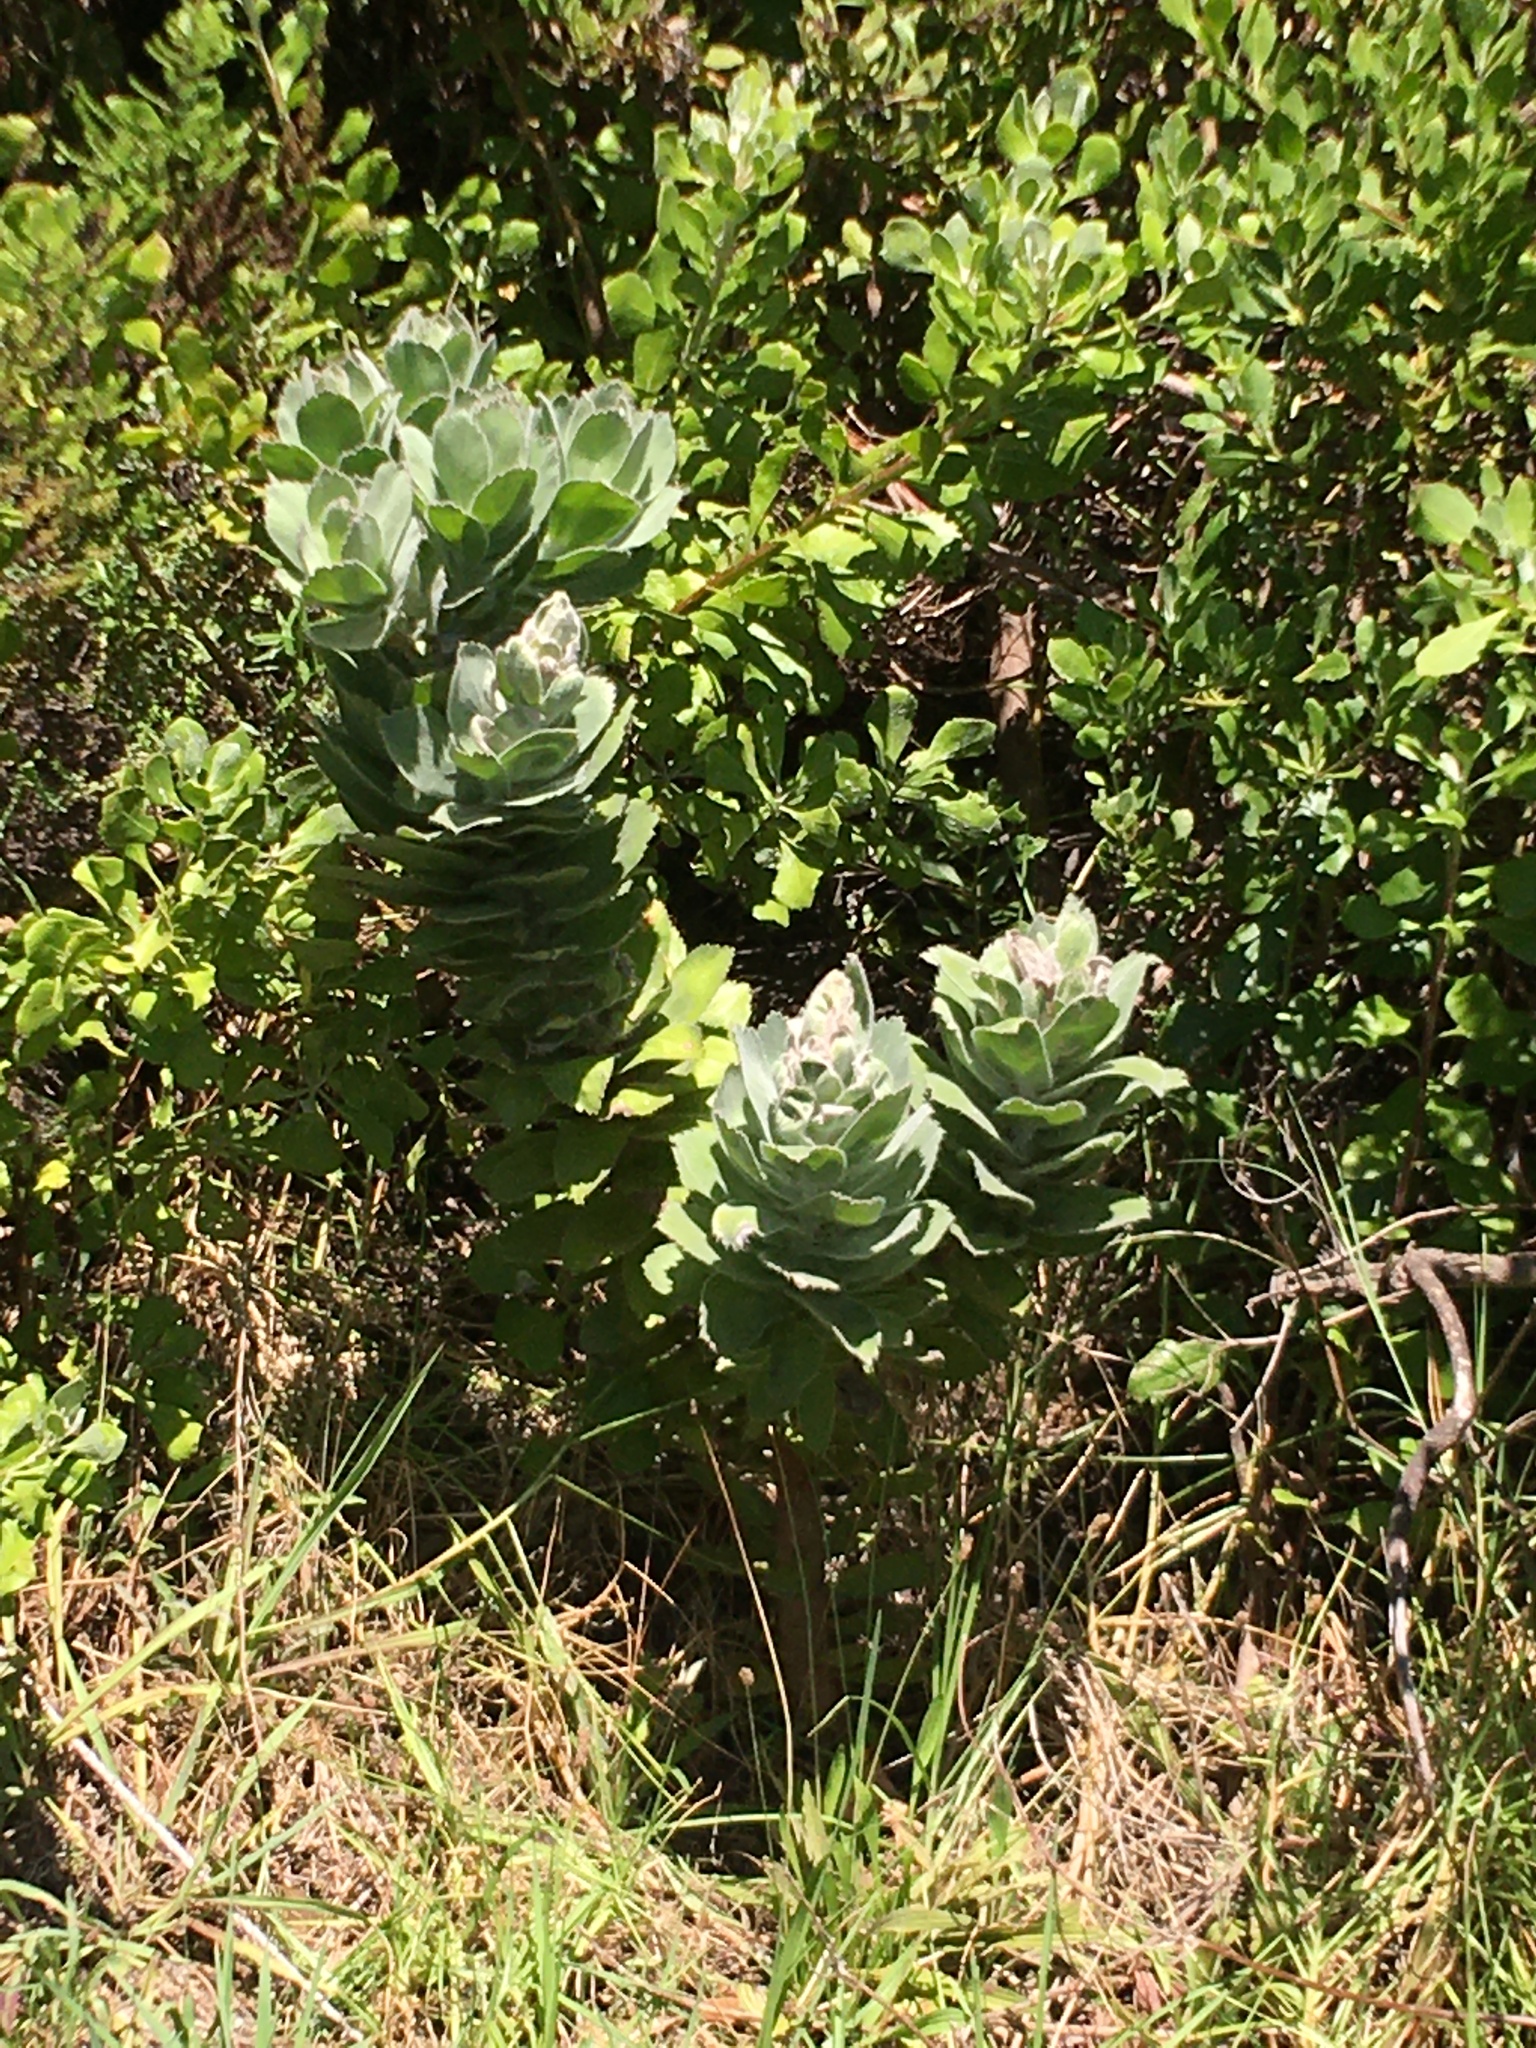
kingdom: Plantae
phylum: Tracheophyta
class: Magnoliopsida
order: Proteales
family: Proteaceae
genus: Leucospermum
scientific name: Leucospermum conocarpodendron
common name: Tree pincushion
